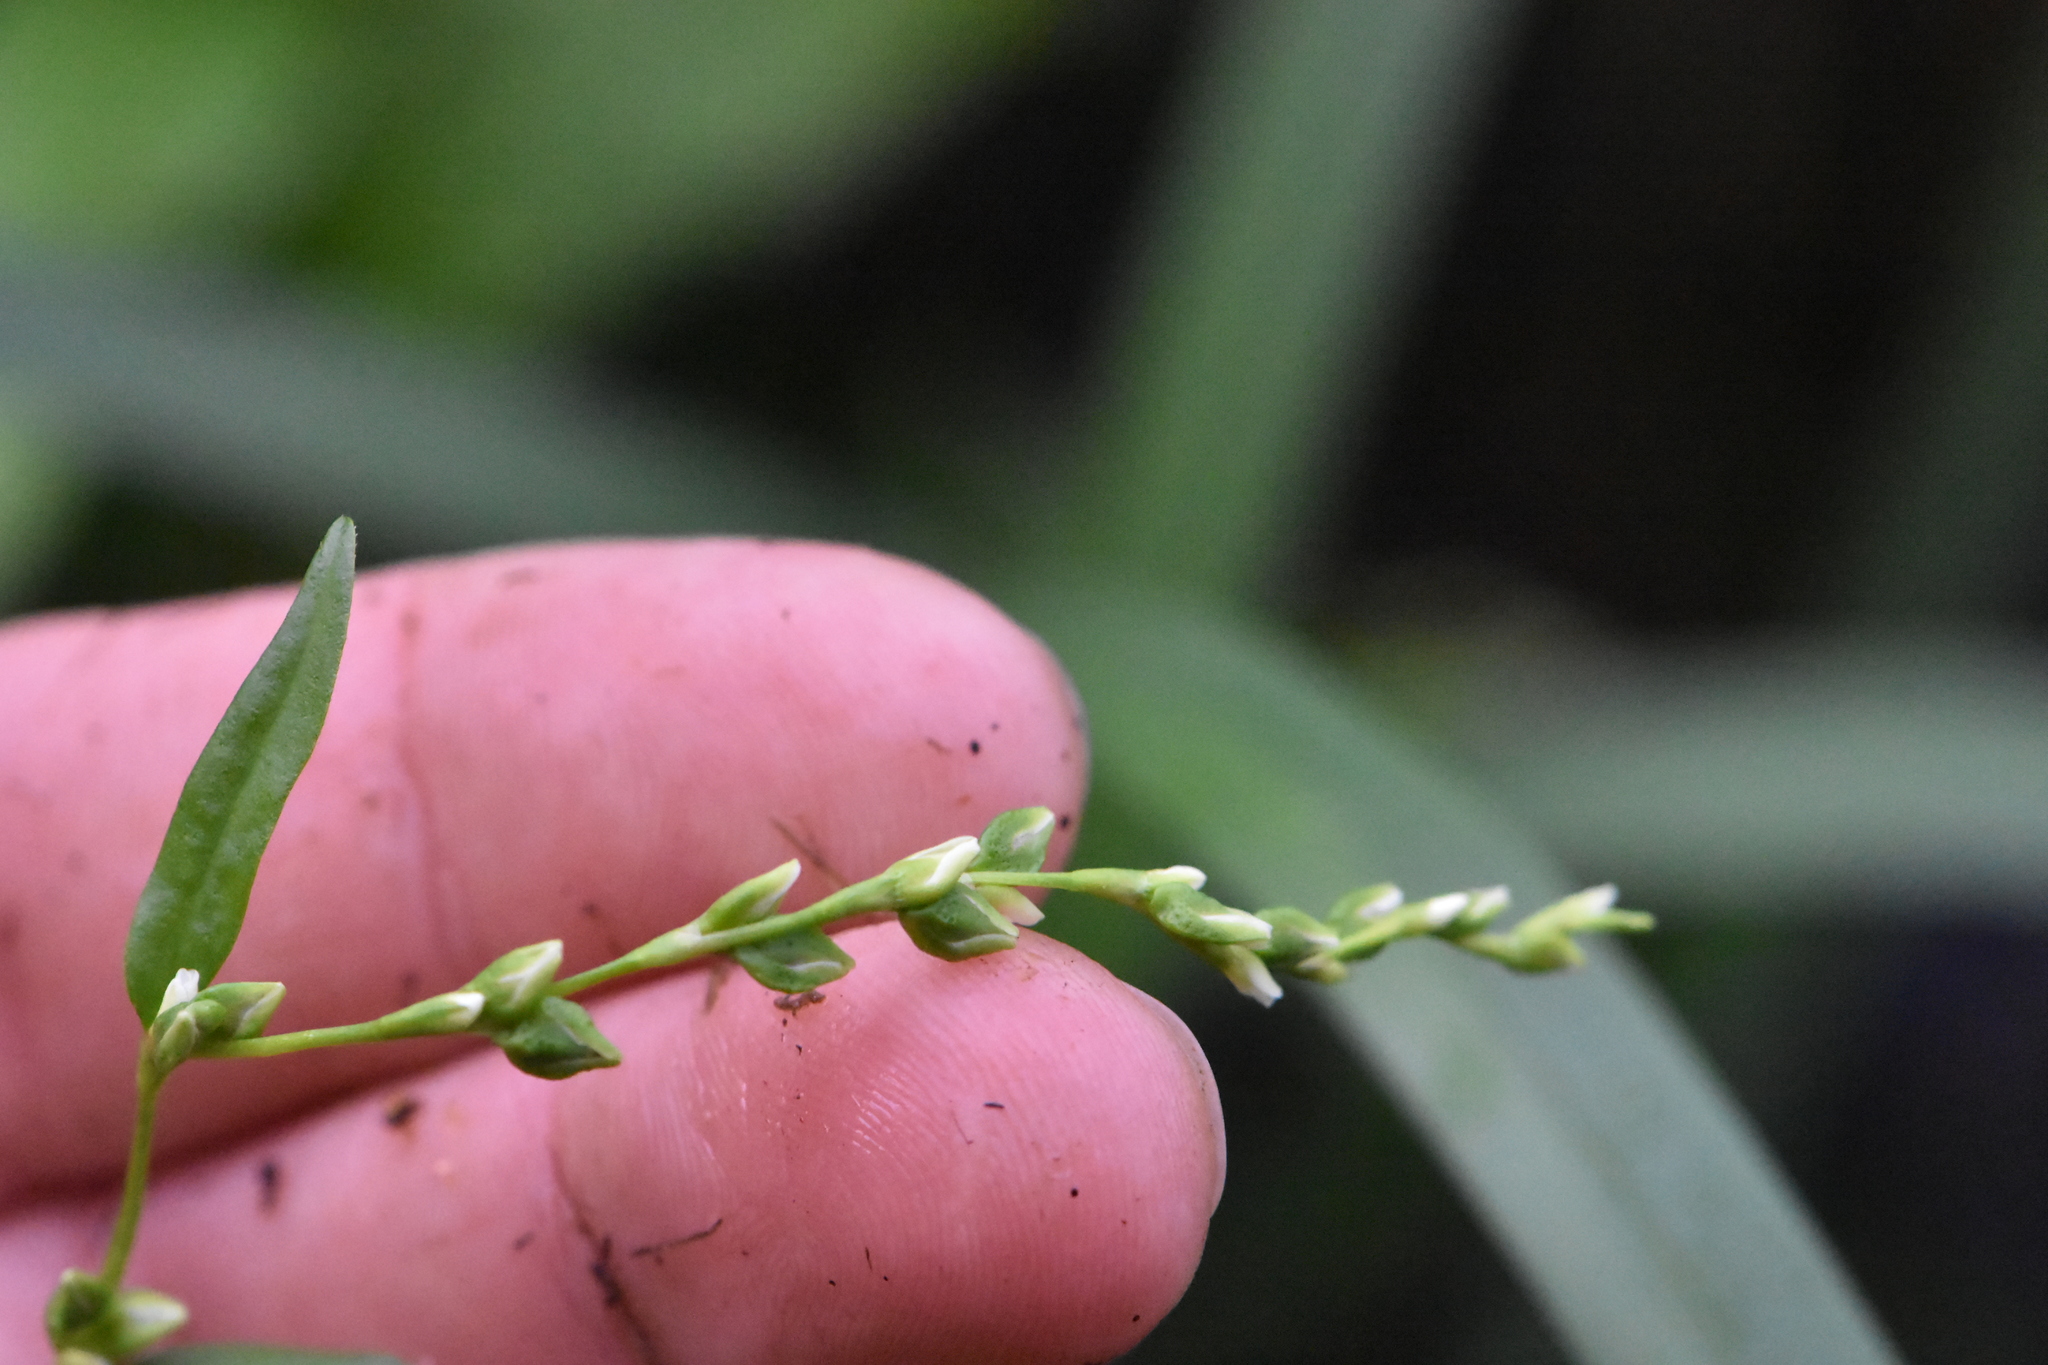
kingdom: Plantae
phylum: Tracheophyta
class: Magnoliopsida
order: Caryophyllales
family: Polygonaceae
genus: Persicaria
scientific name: Persicaria hydropiper
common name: Water-pepper
